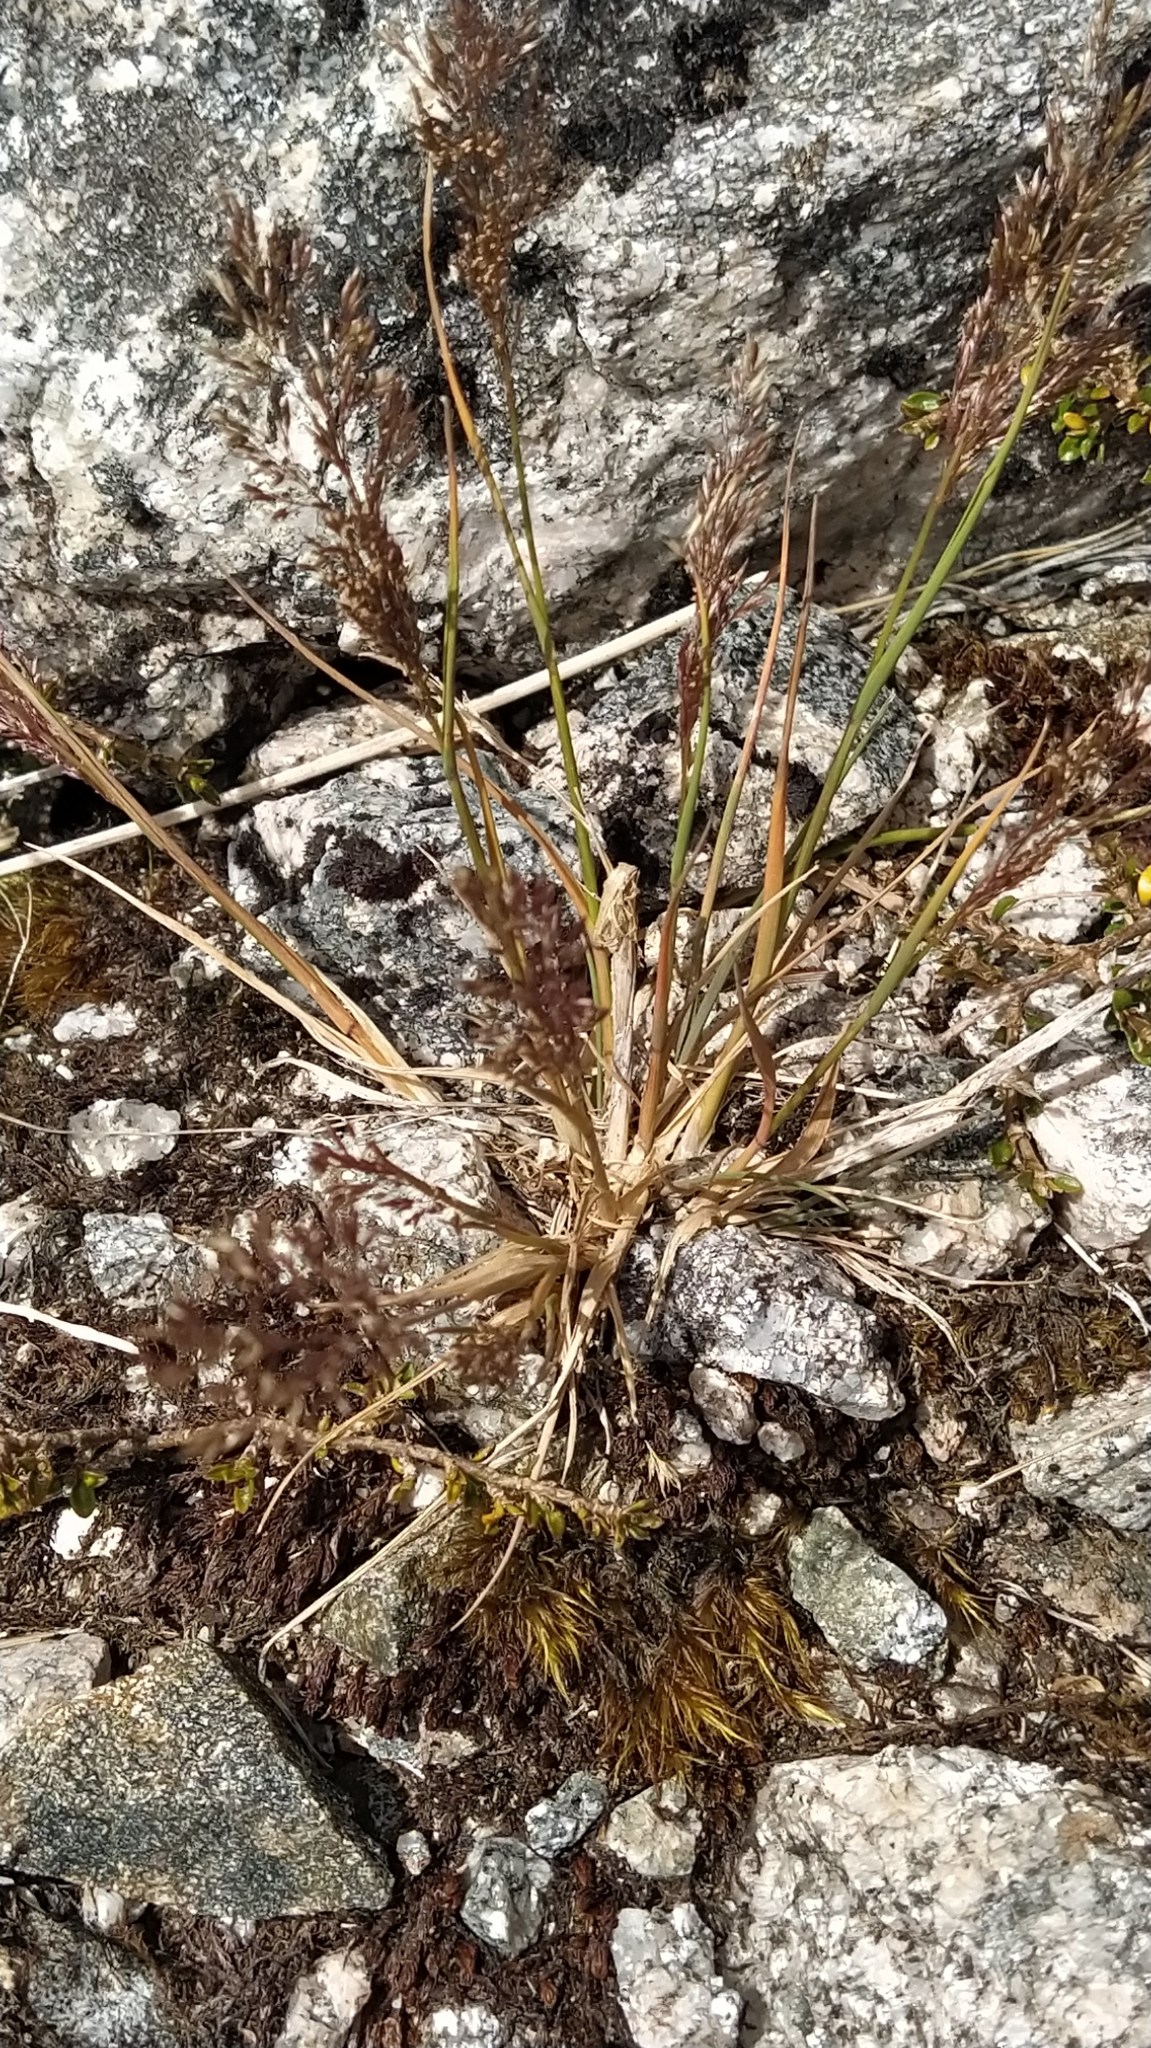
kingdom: Plantae
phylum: Tracheophyta
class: Liliopsida
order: Poales
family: Poaceae
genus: Agrostis
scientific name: Agrostis personata
